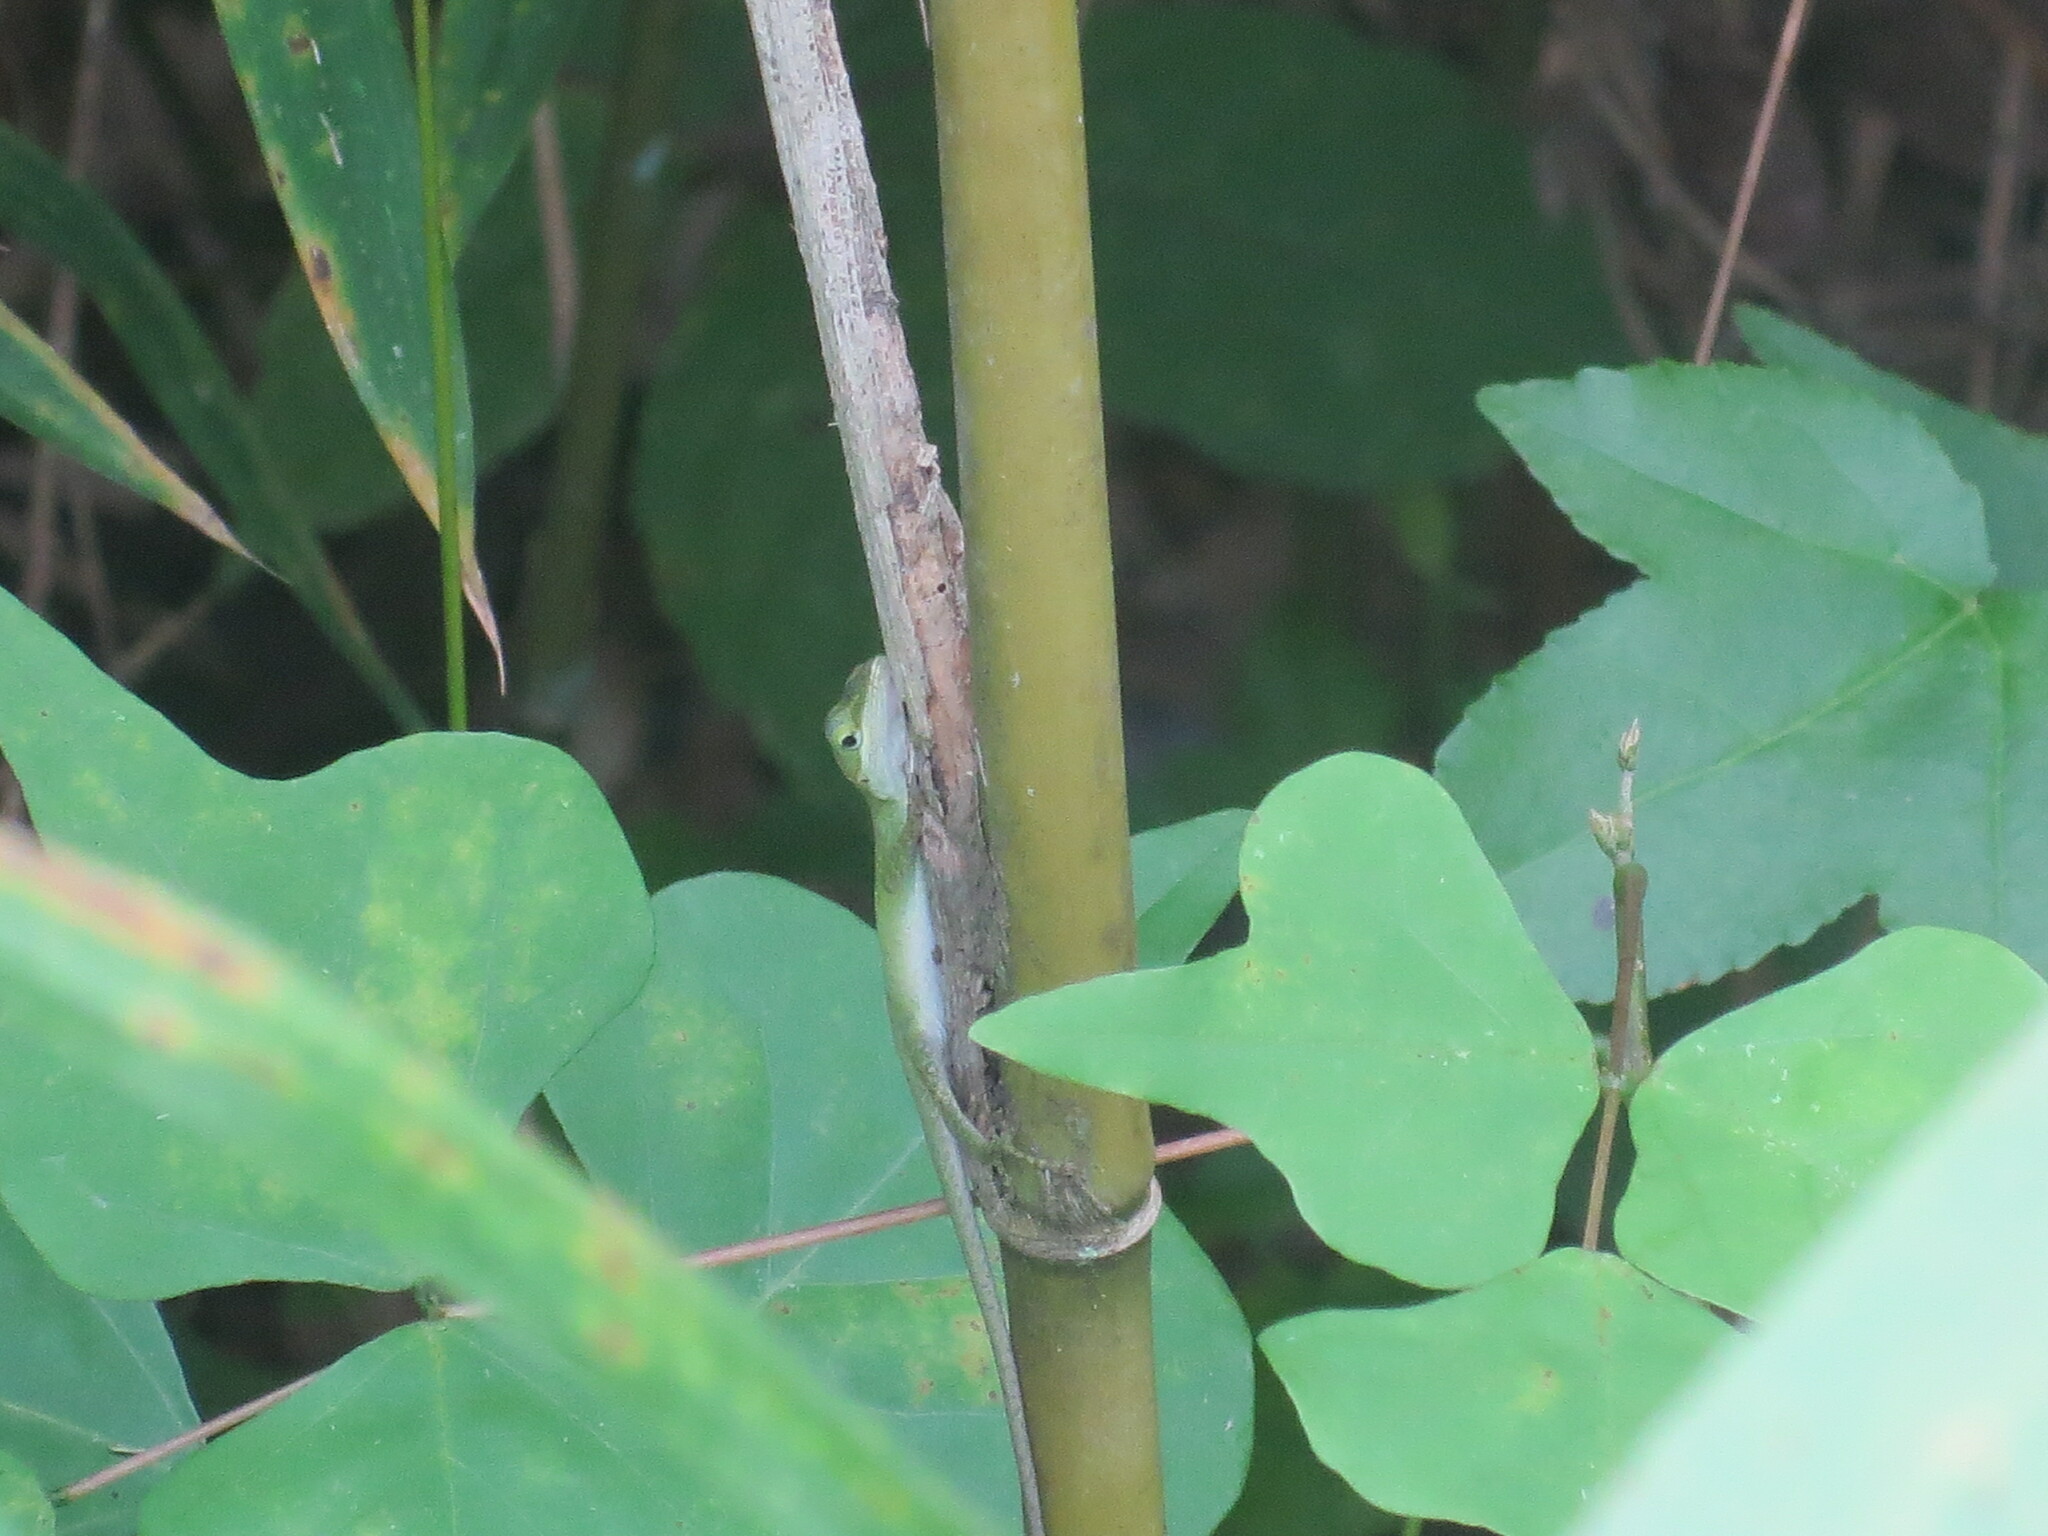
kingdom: Animalia
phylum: Chordata
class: Squamata
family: Dactyloidae
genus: Anolis
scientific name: Anolis carolinensis
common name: Green anole
